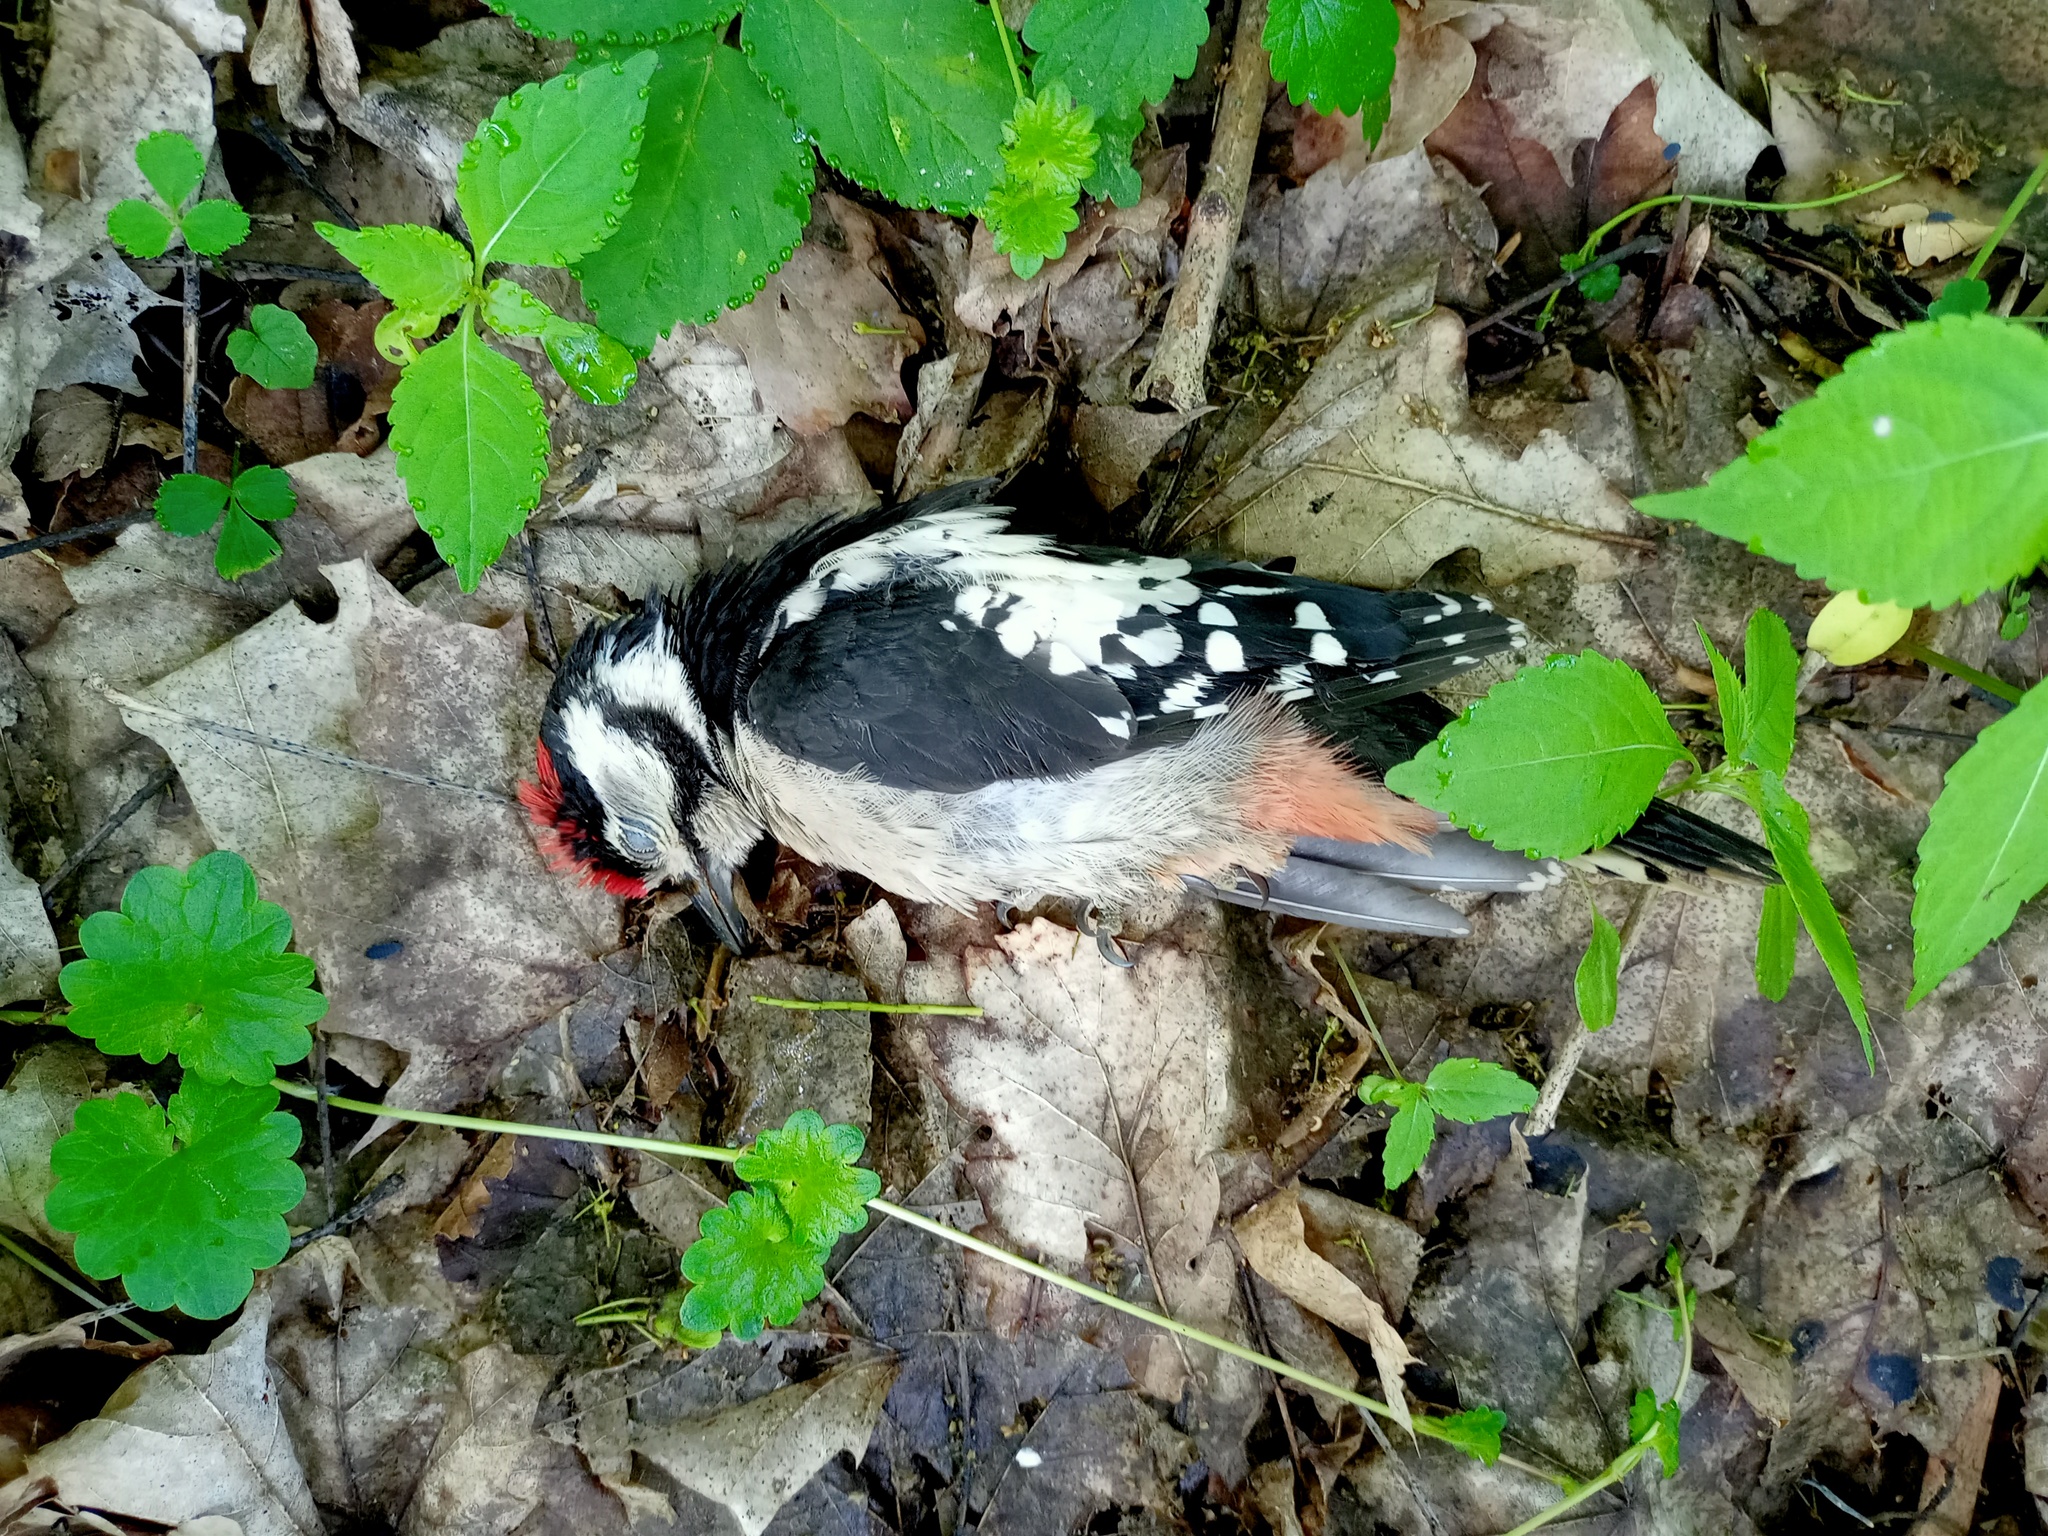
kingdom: Animalia
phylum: Chordata
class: Aves
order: Piciformes
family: Picidae
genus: Dendrocopos
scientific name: Dendrocopos major
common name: Great spotted woodpecker
